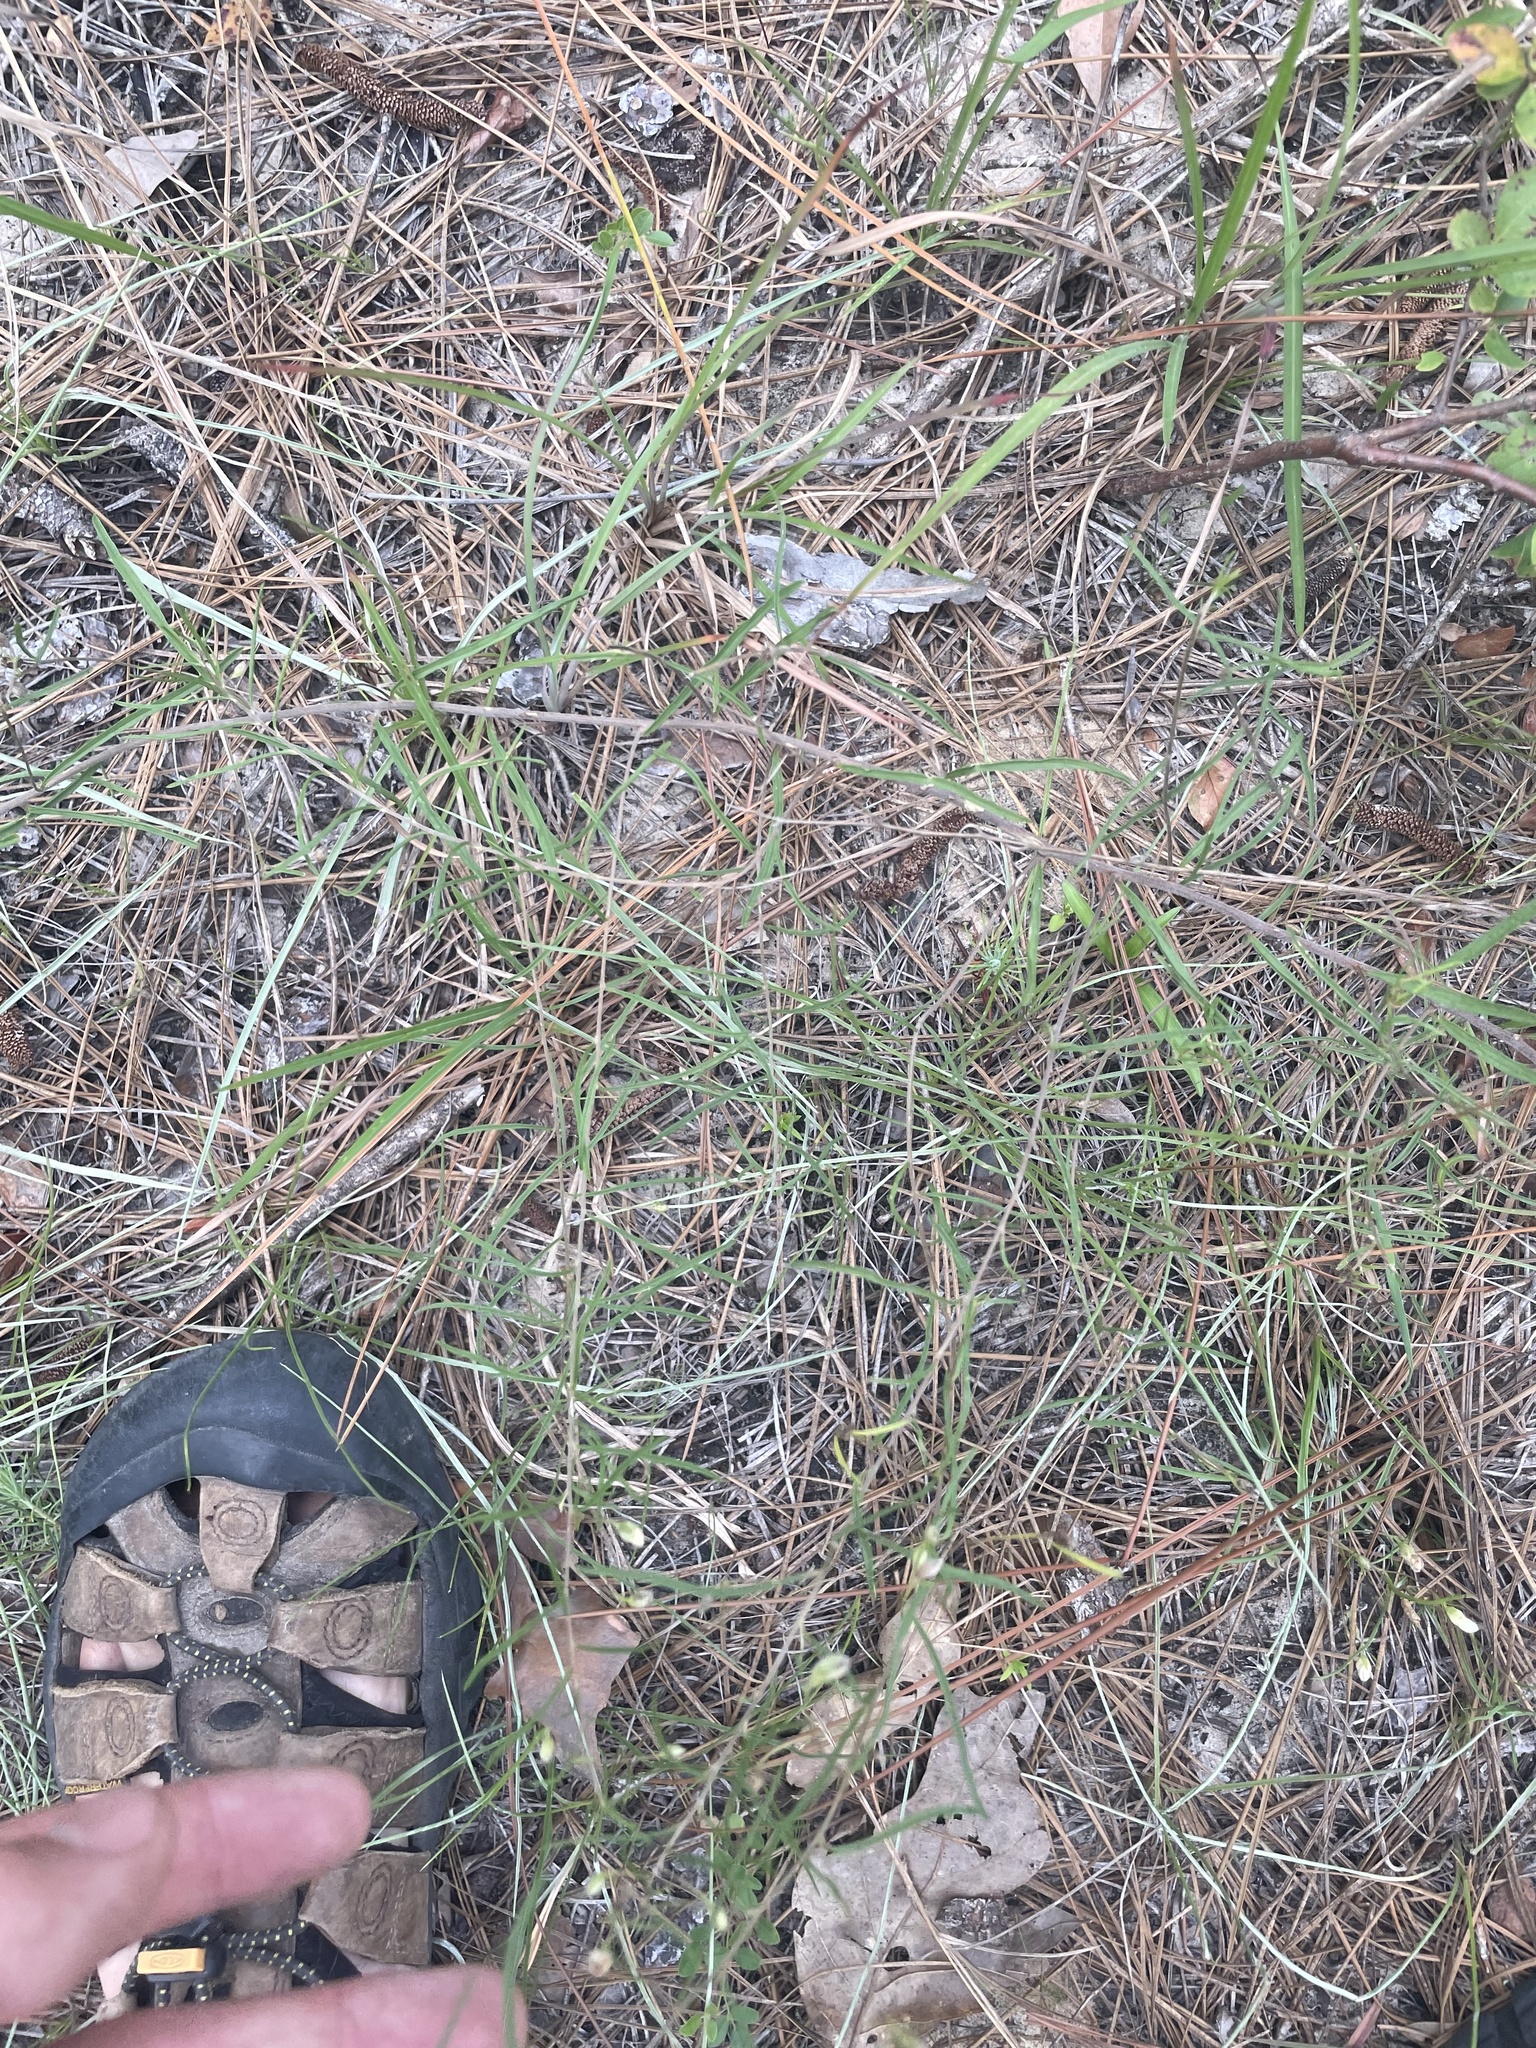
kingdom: Plantae
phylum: Tracheophyta
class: Magnoliopsida
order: Solanales
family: Convolvulaceae
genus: Stylisma
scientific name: Stylisma pickeringii
